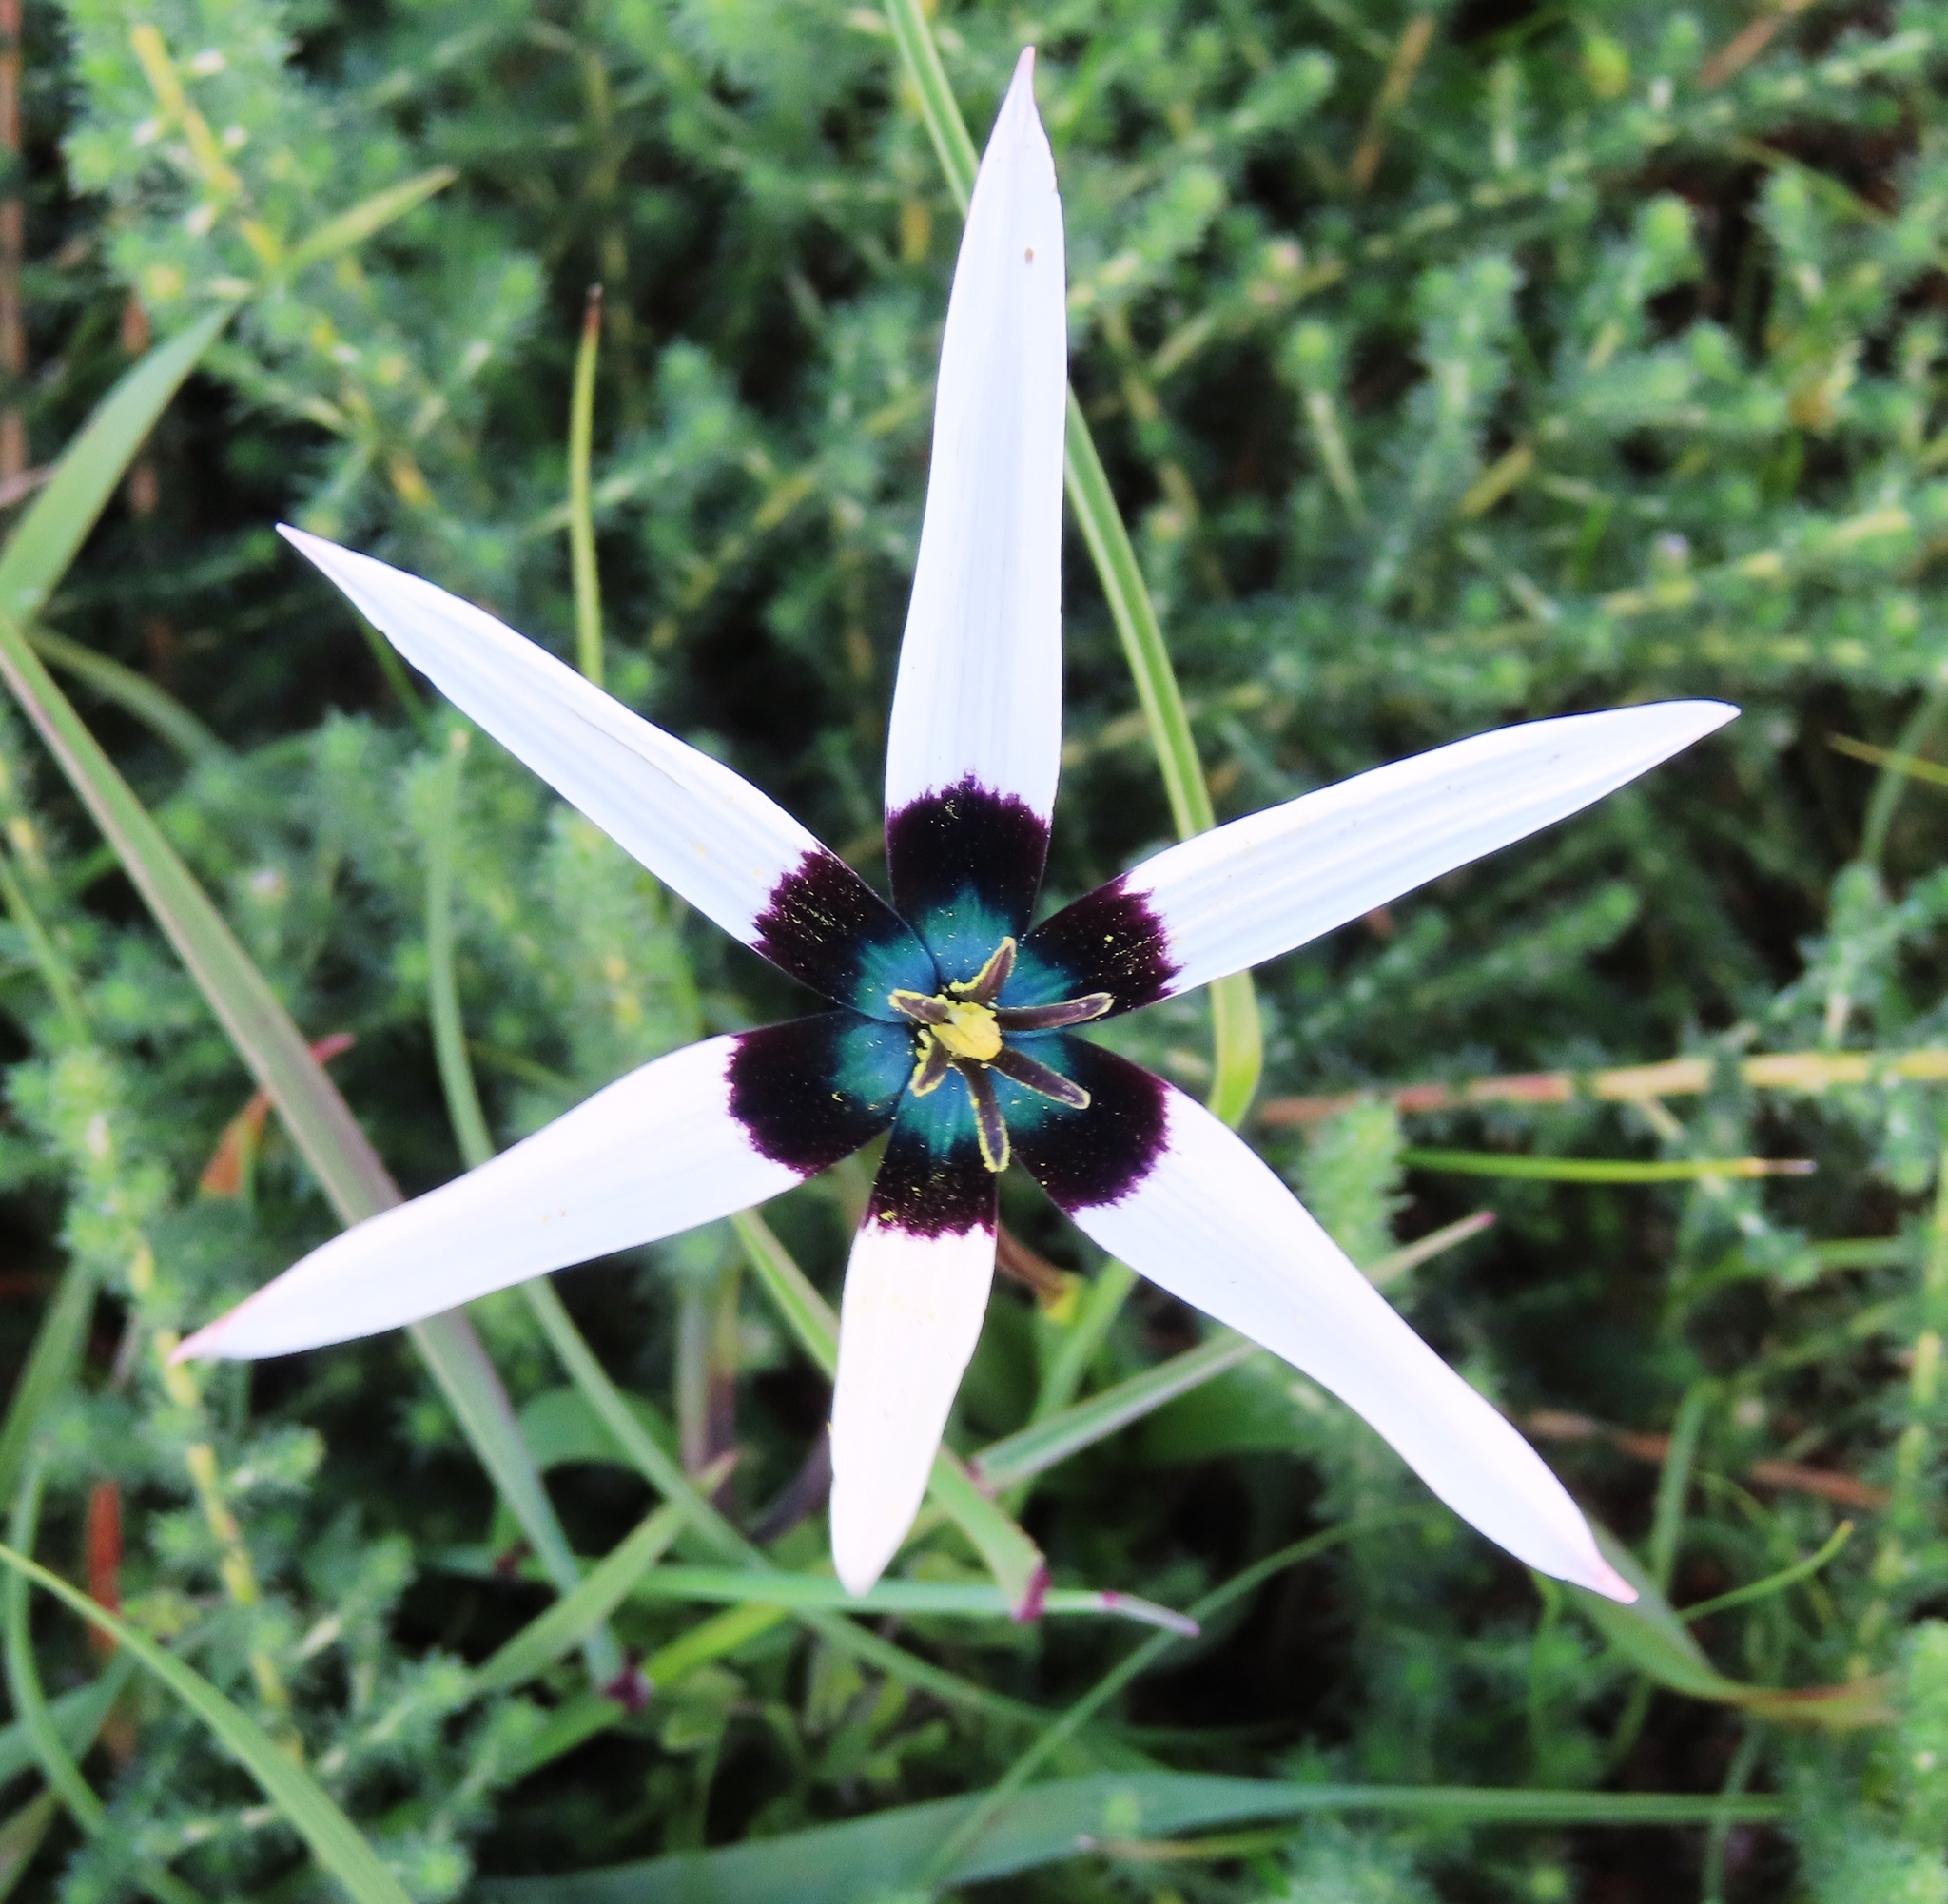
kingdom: Plantae
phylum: Tracheophyta
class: Liliopsida
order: Asparagales
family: Hypoxidaceae
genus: Pauridia
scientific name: Pauridia capensis
